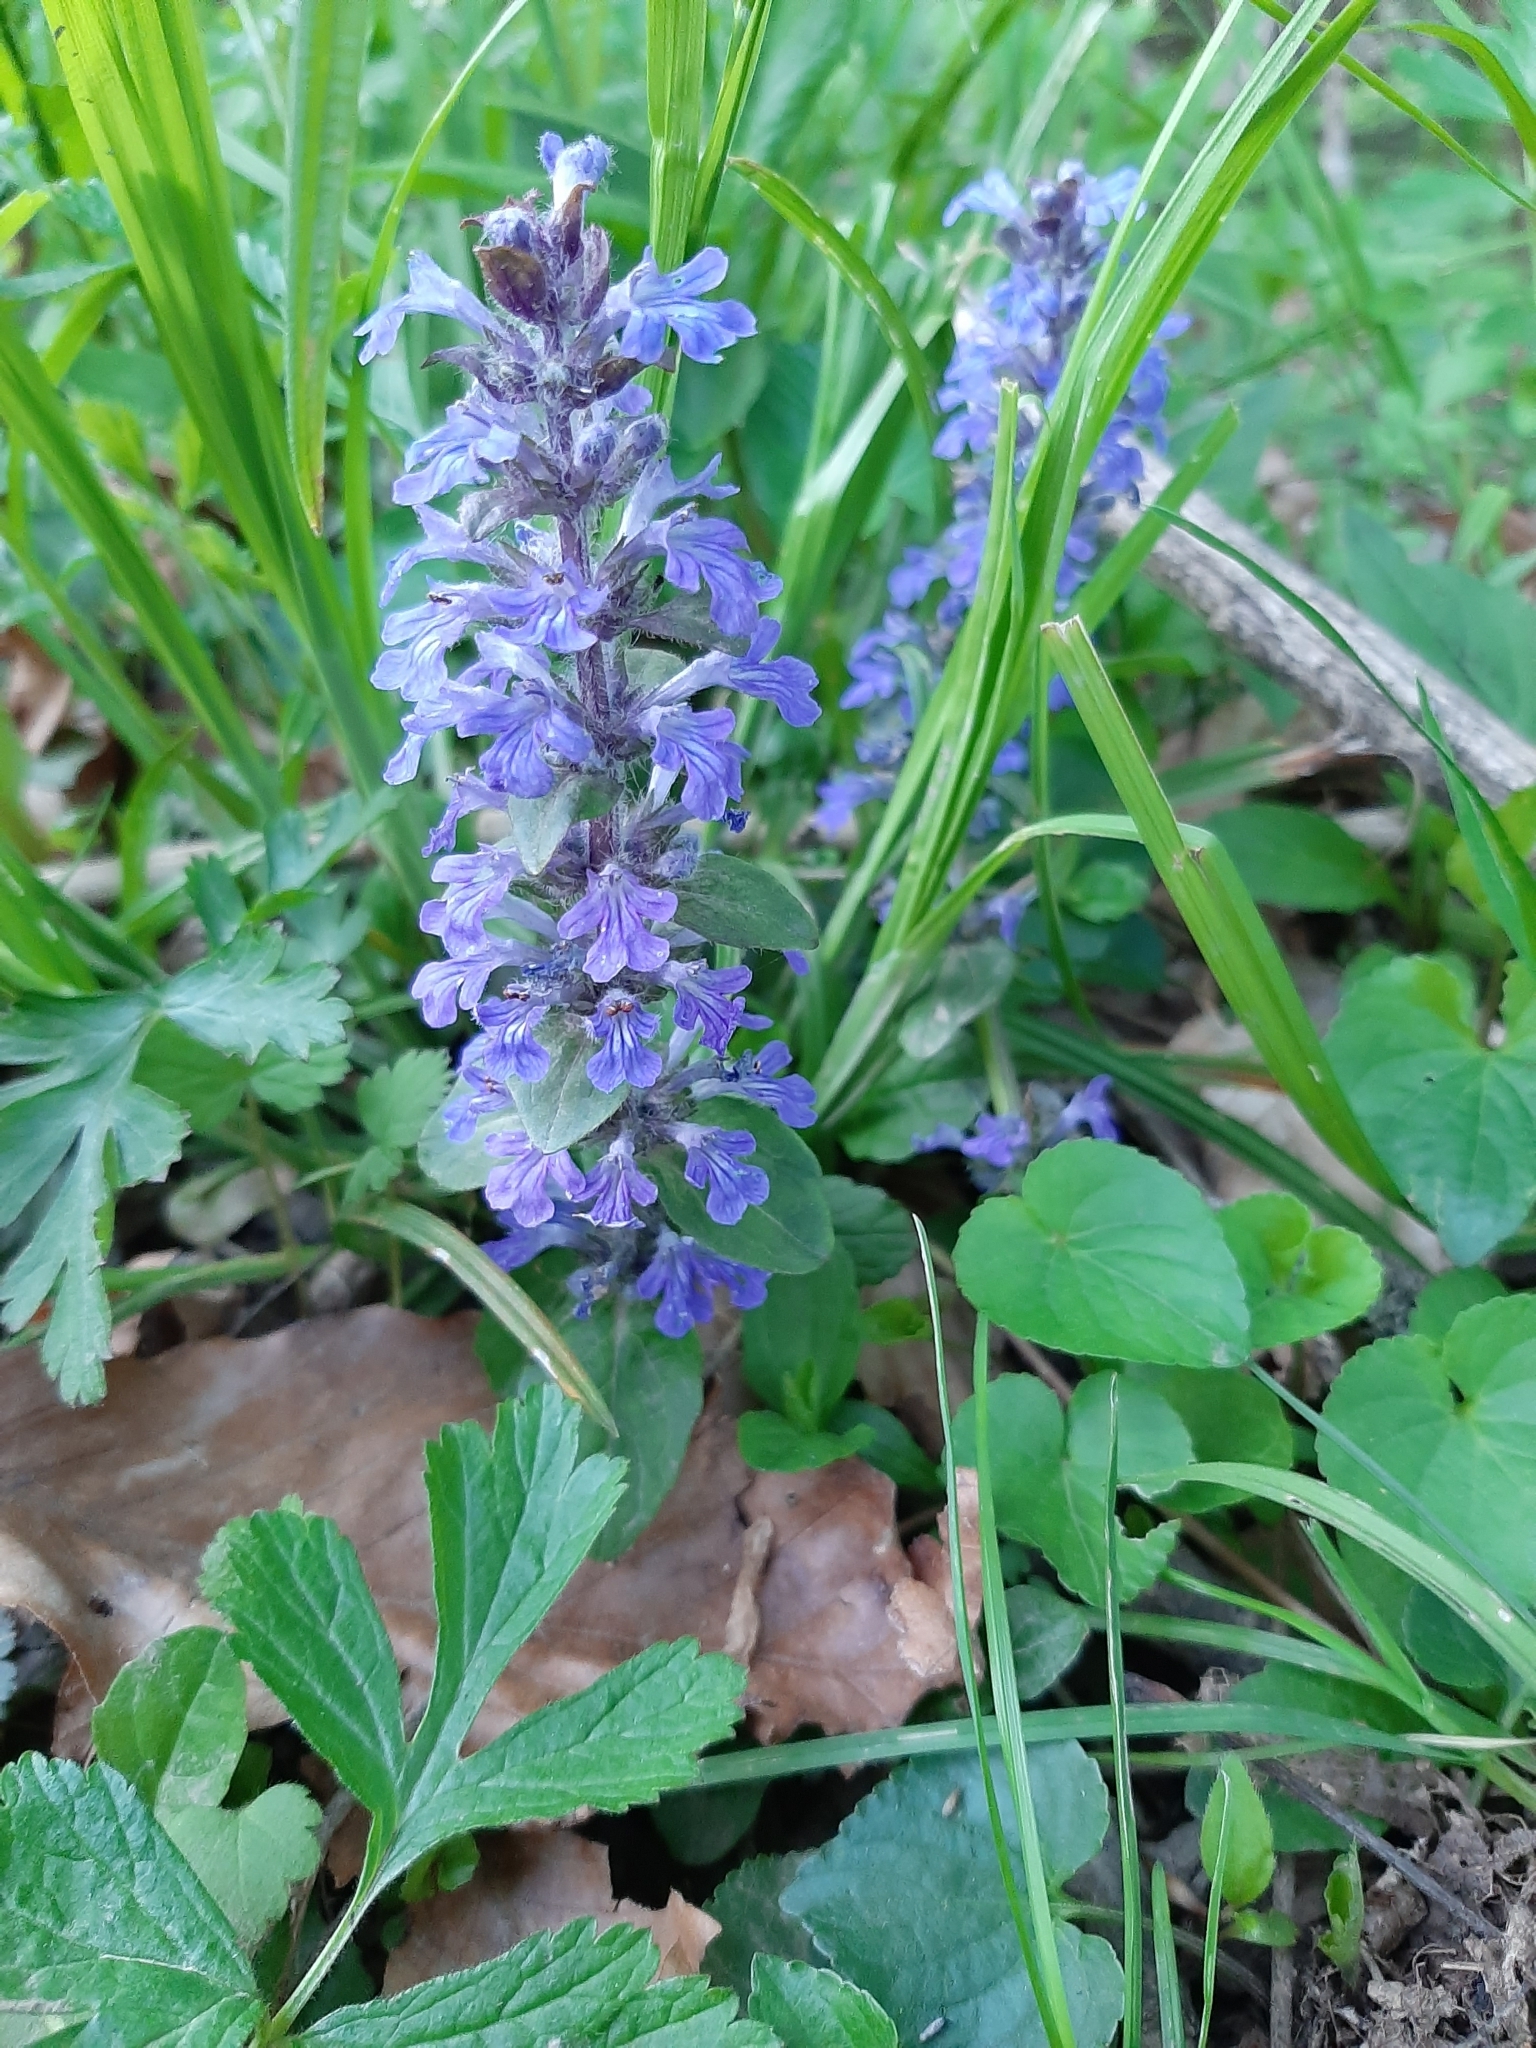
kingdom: Plantae
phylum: Tracheophyta
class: Magnoliopsida
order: Lamiales
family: Lamiaceae
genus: Ajuga
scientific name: Ajuga reptans
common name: Bugle
